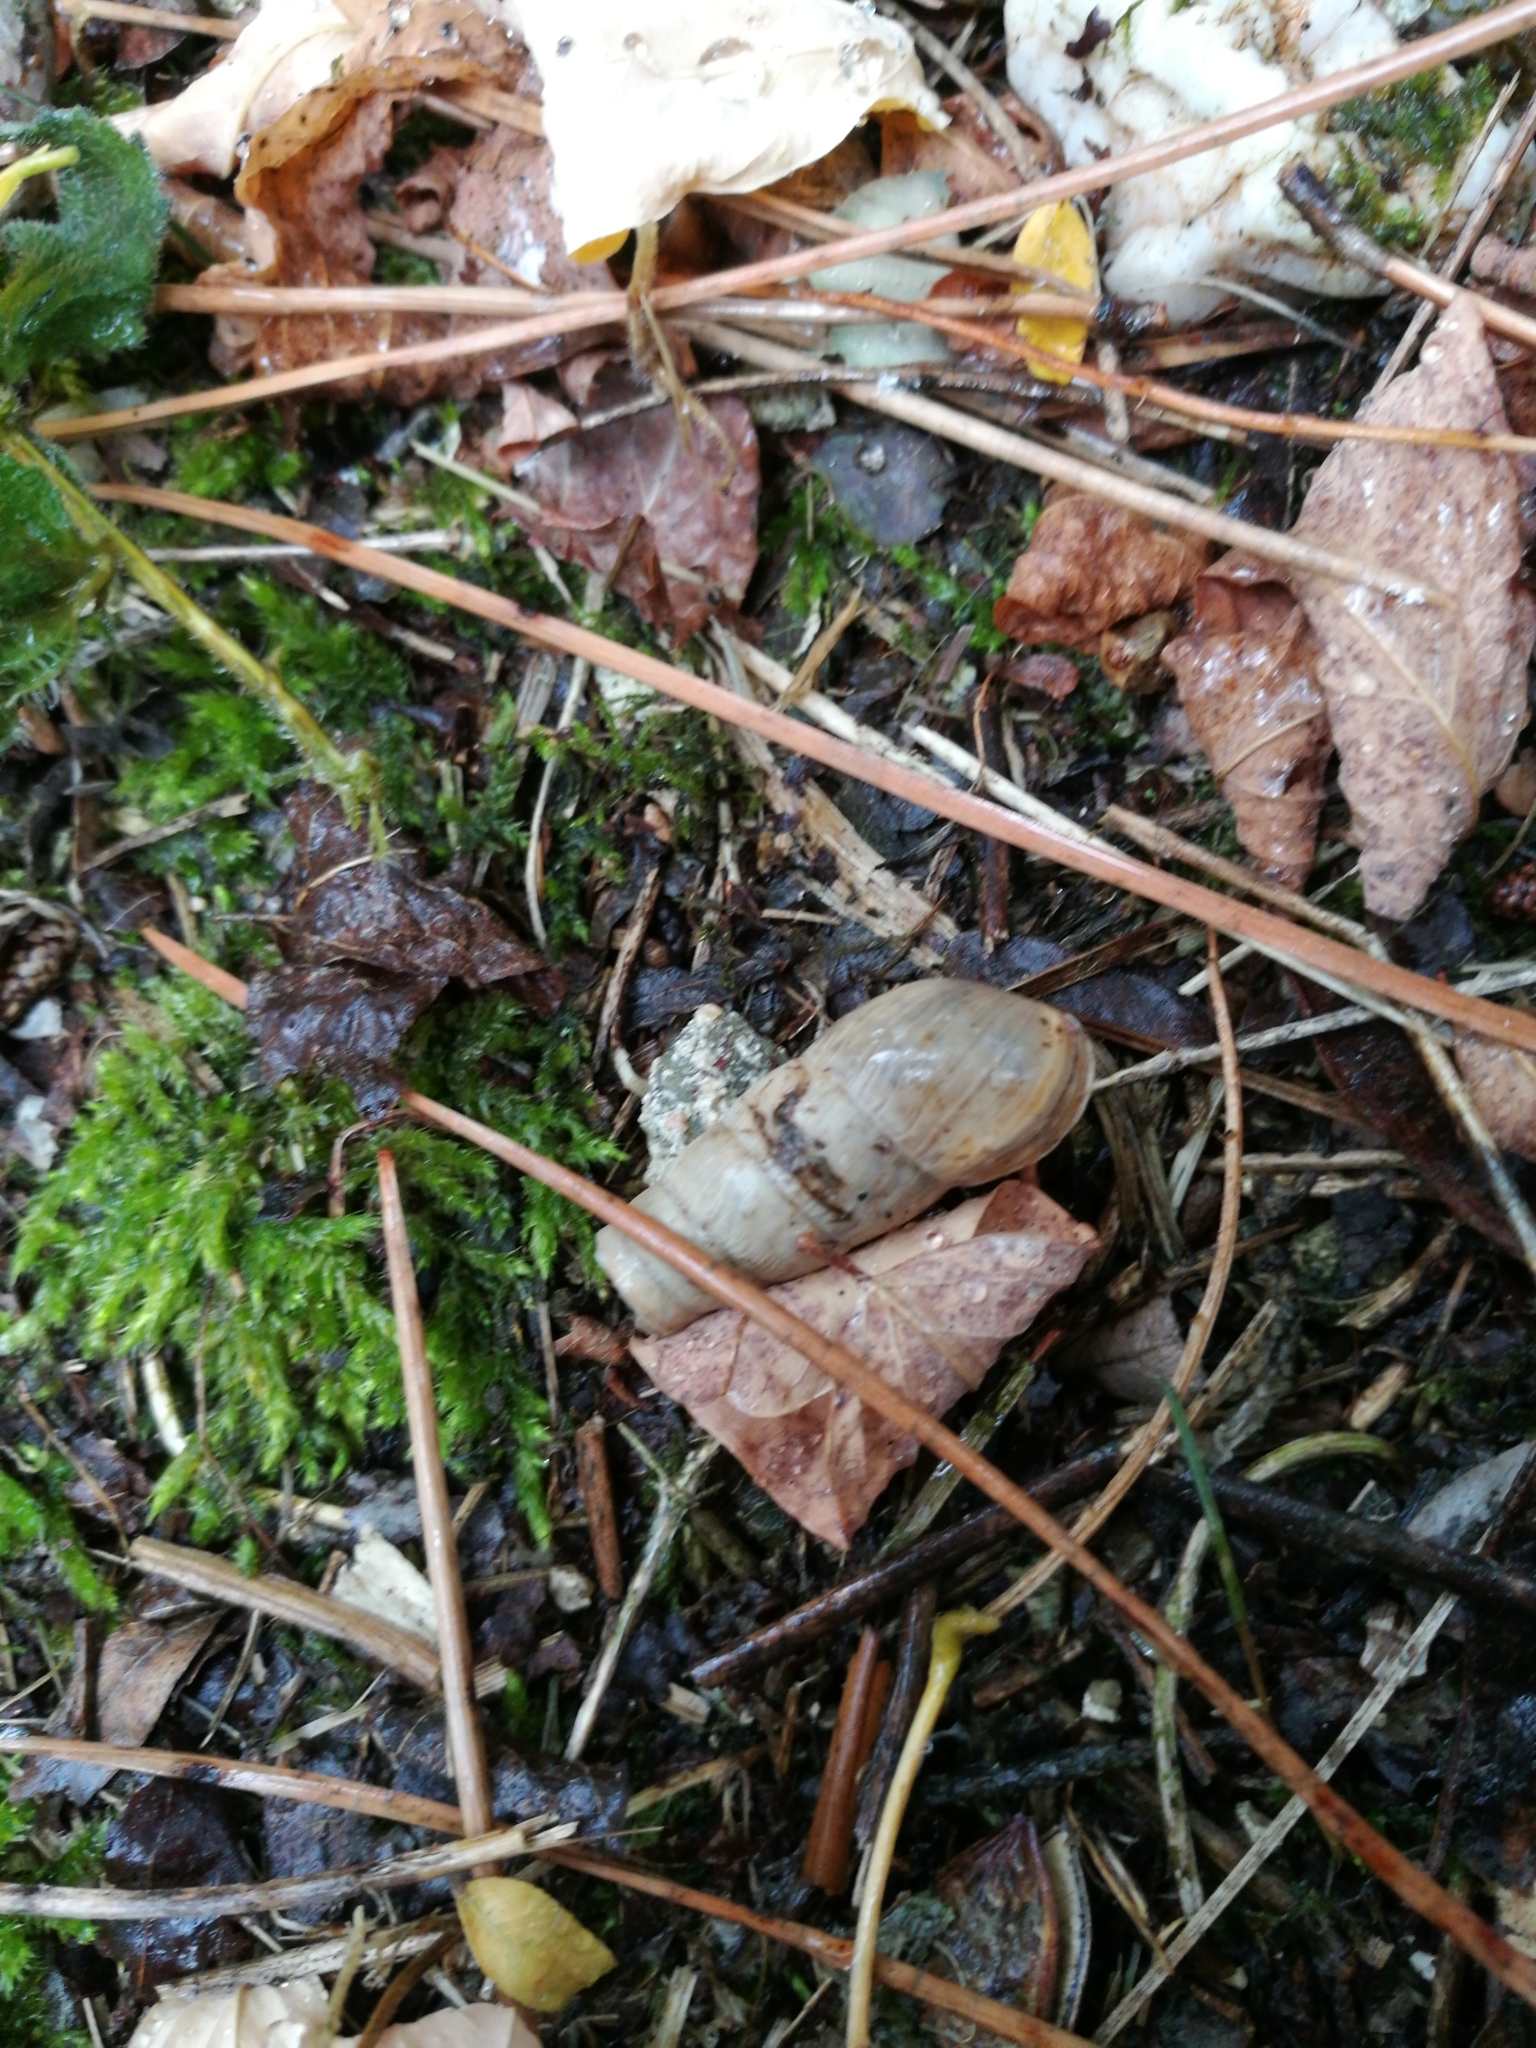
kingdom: Animalia
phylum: Mollusca
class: Gastropoda
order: Stylommatophora
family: Achatinidae
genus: Rumina
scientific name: Rumina decollata
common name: Decollate snail
